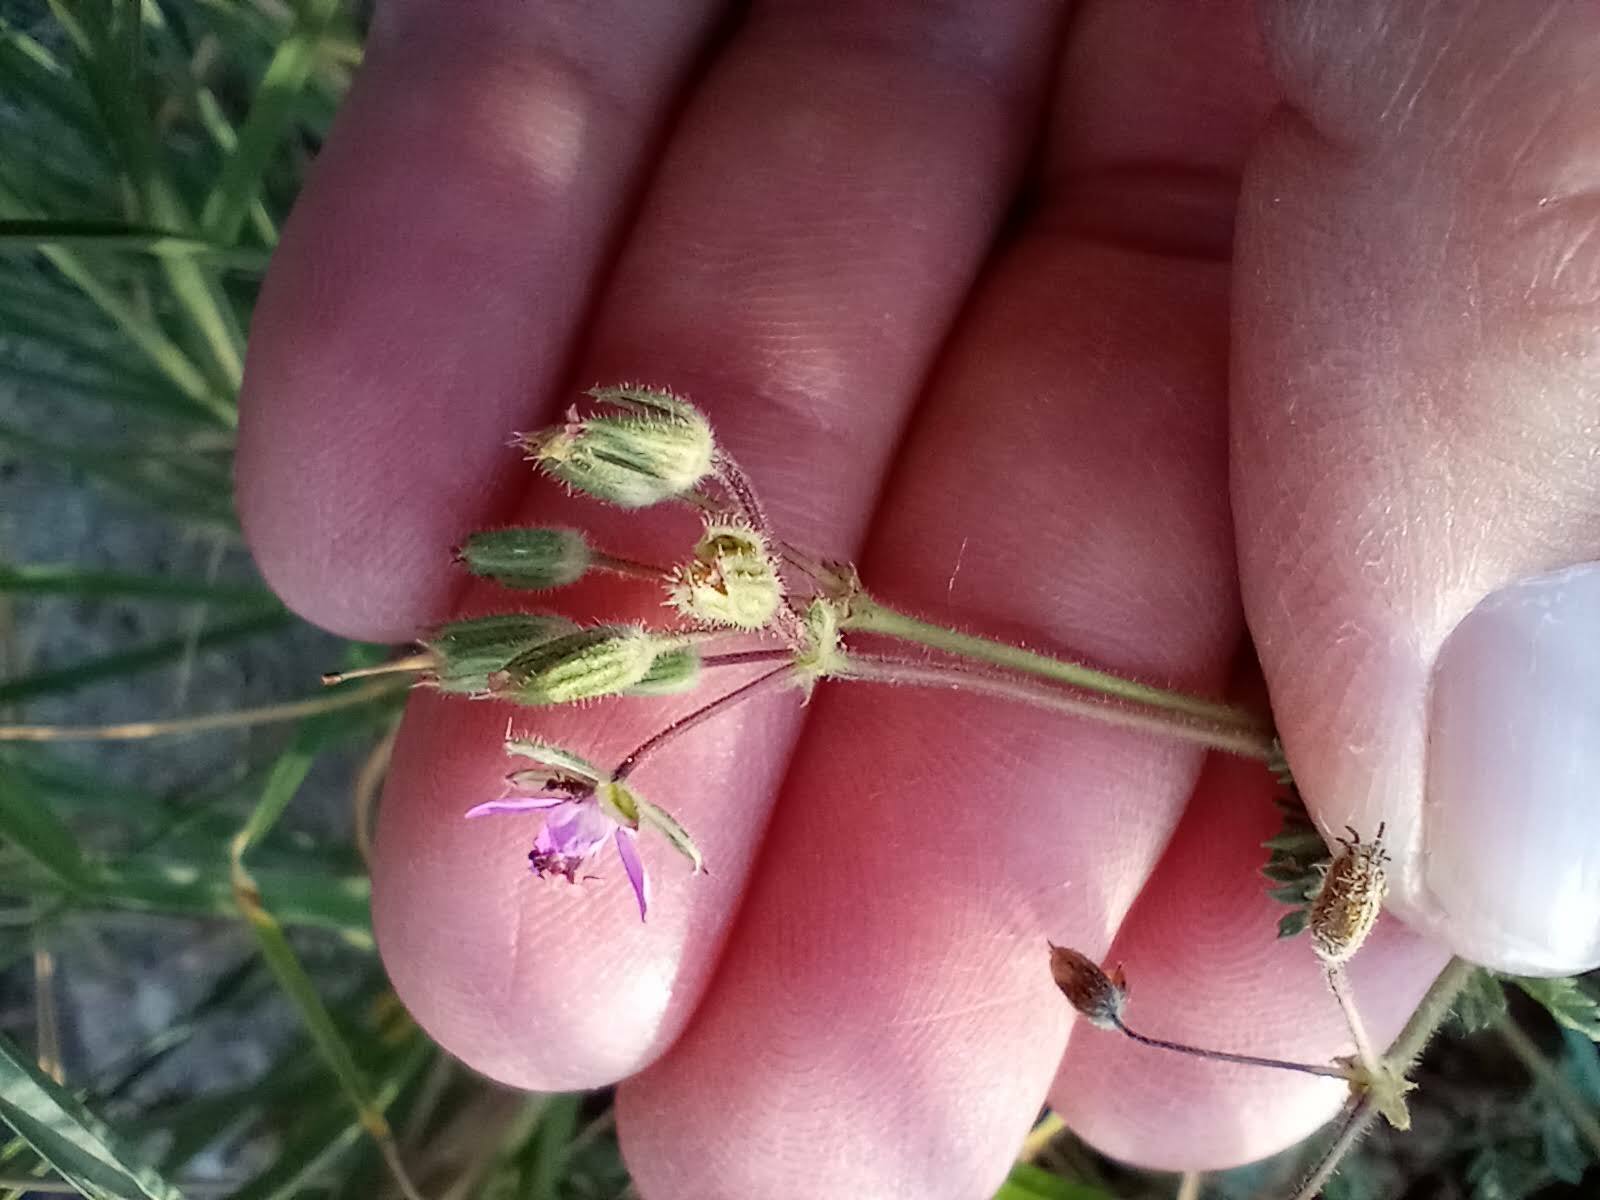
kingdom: Plantae
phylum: Tracheophyta
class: Magnoliopsida
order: Geraniales
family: Geraniaceae
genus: Erodium
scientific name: Erodium cicutarium
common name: Common stork's-bill
